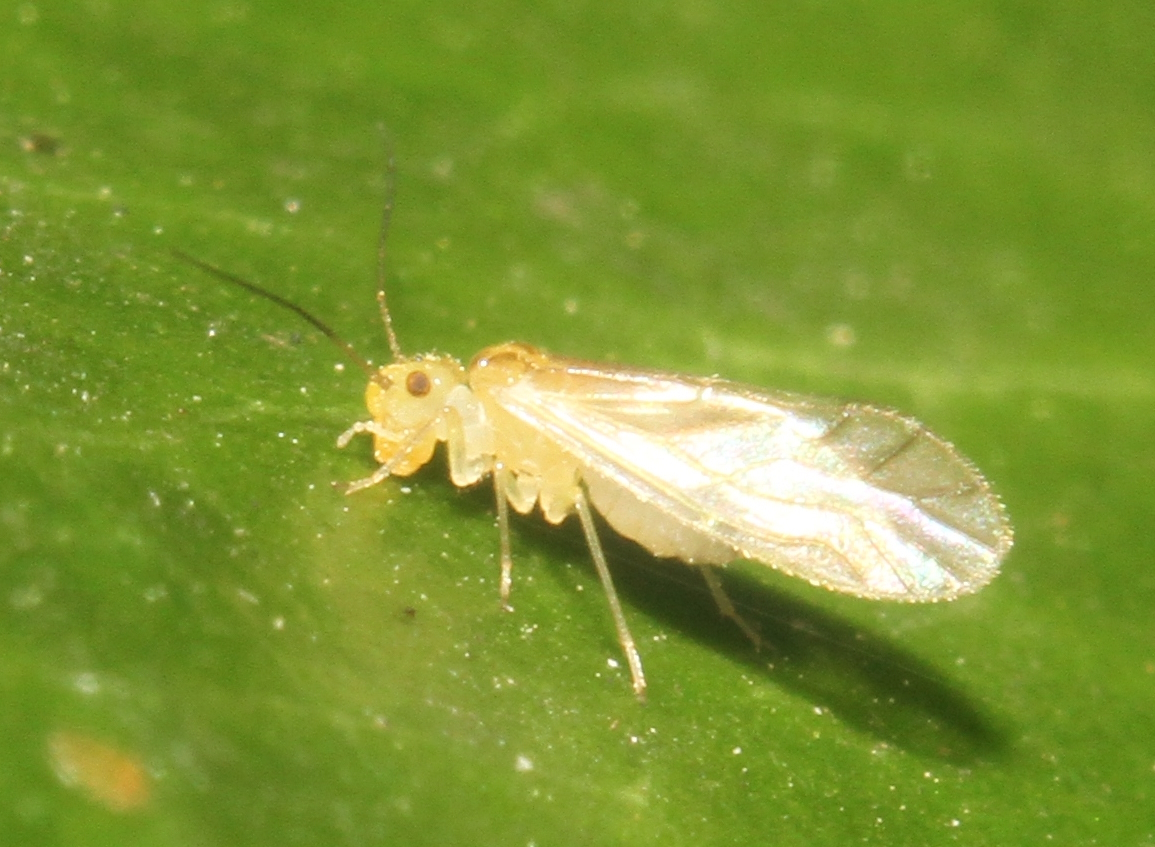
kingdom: Animalia
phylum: Arthropoda
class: Insecta
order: Psocodea
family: Caeciliusidae
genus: Valenzuela
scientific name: Valenzuela flavidus
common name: Yellow barklouse
